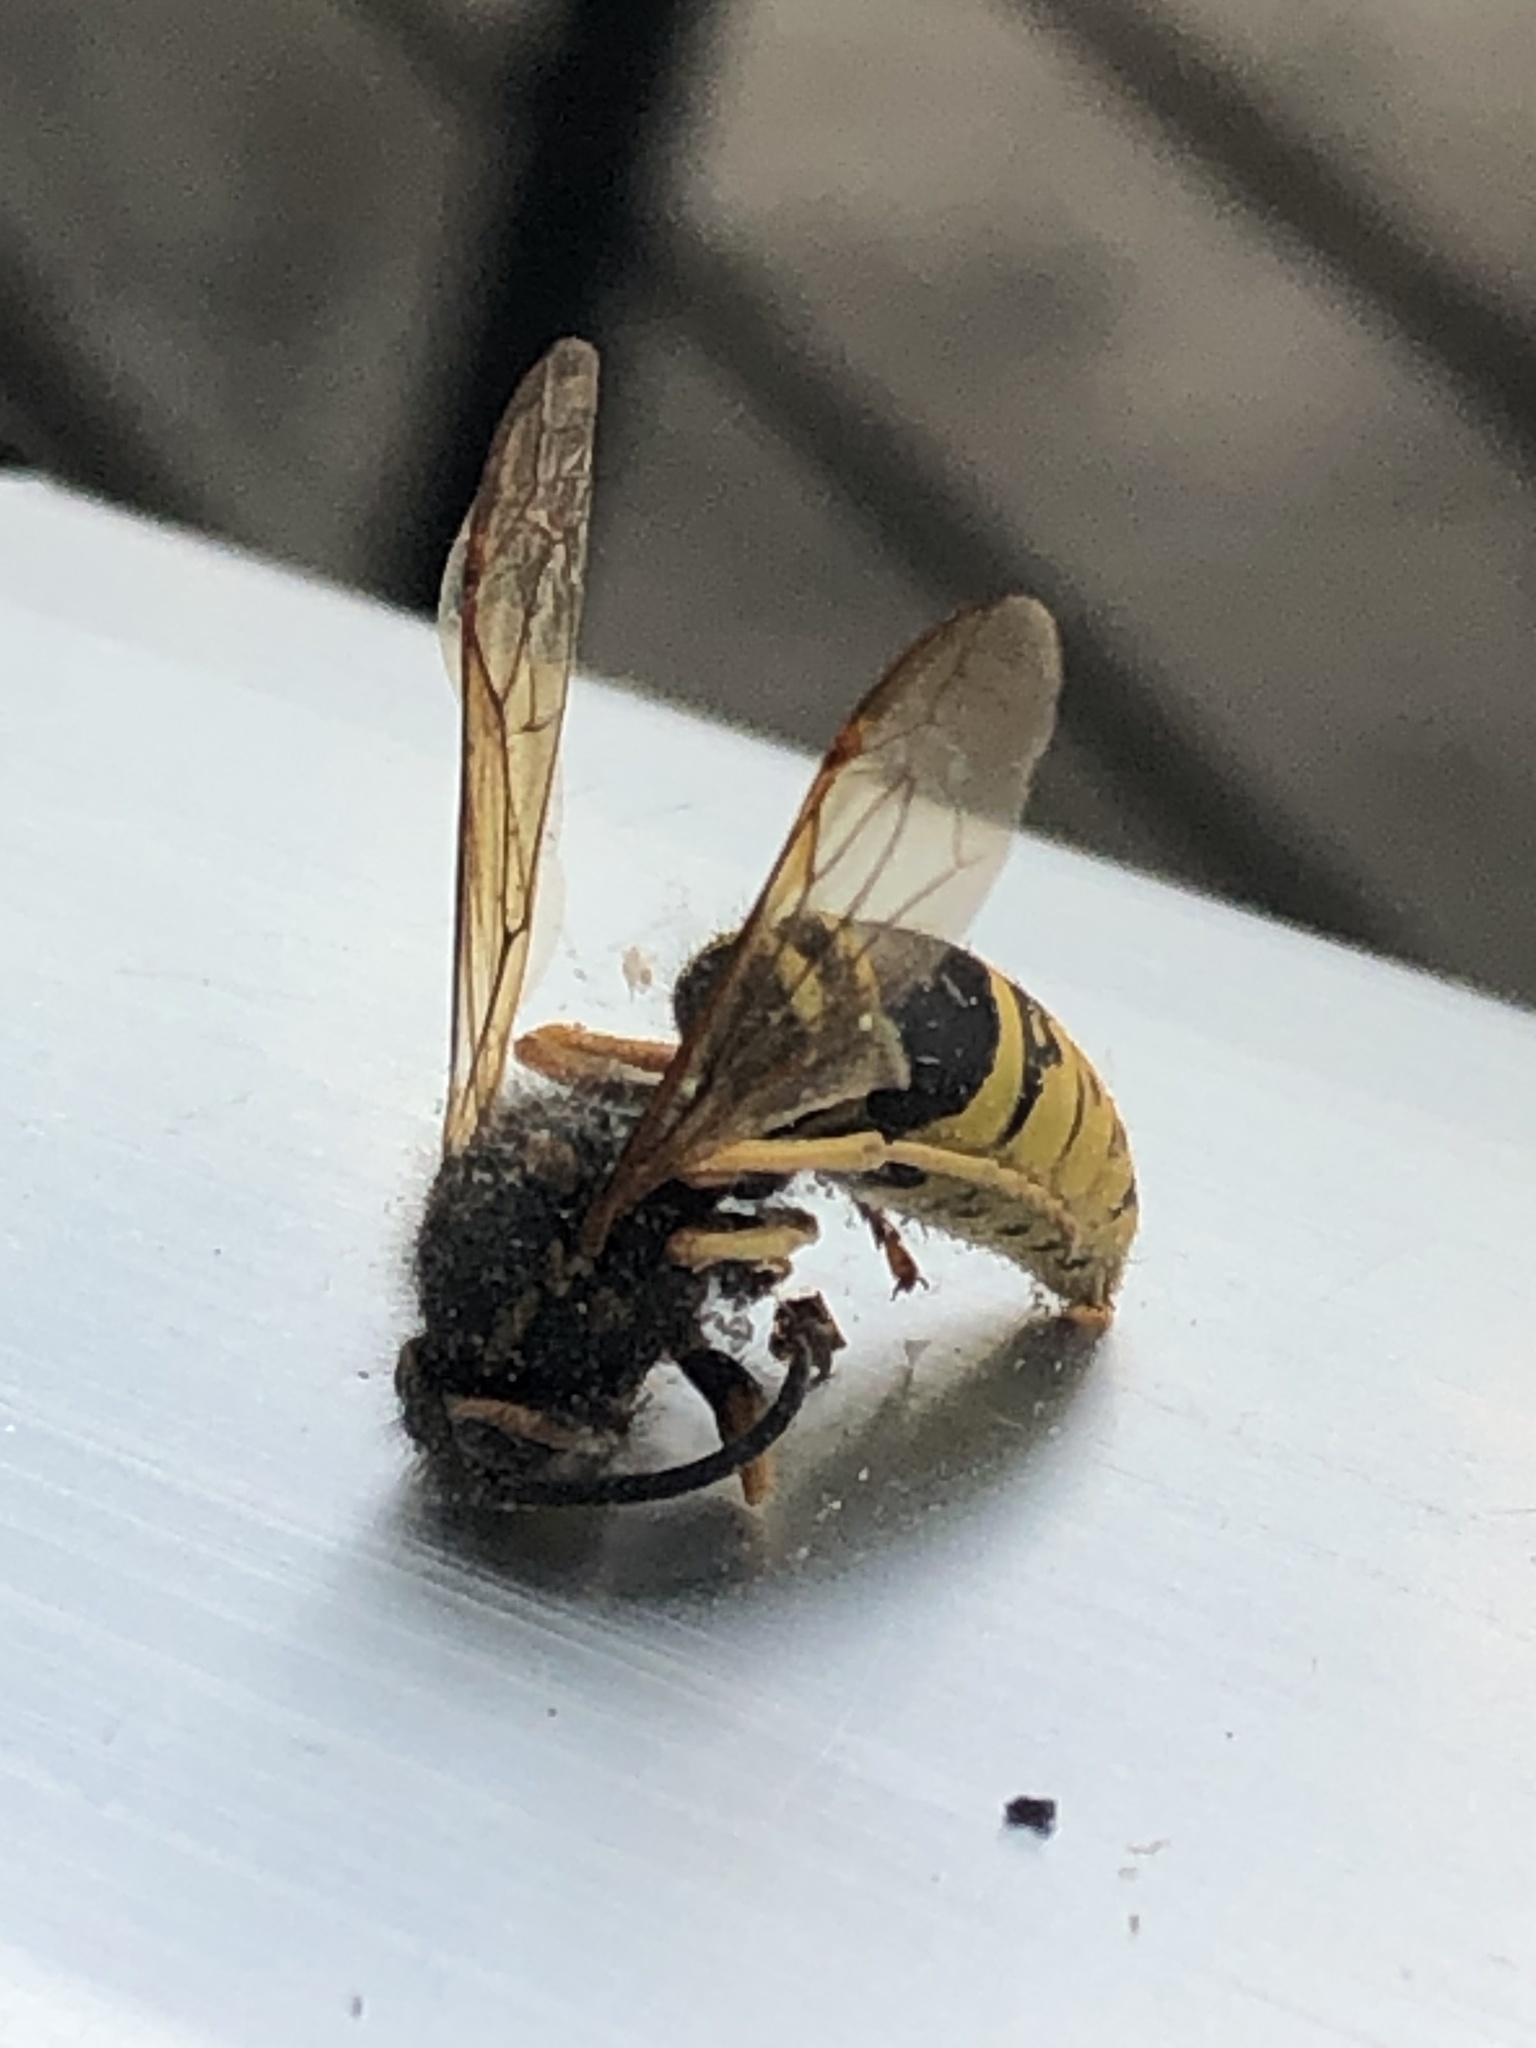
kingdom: Animalia
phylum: Arthropoda
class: Insecta
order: Hymenoptera
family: Vespidae
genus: Vespula
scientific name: Vespula vidua
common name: Widow yellowjacket
